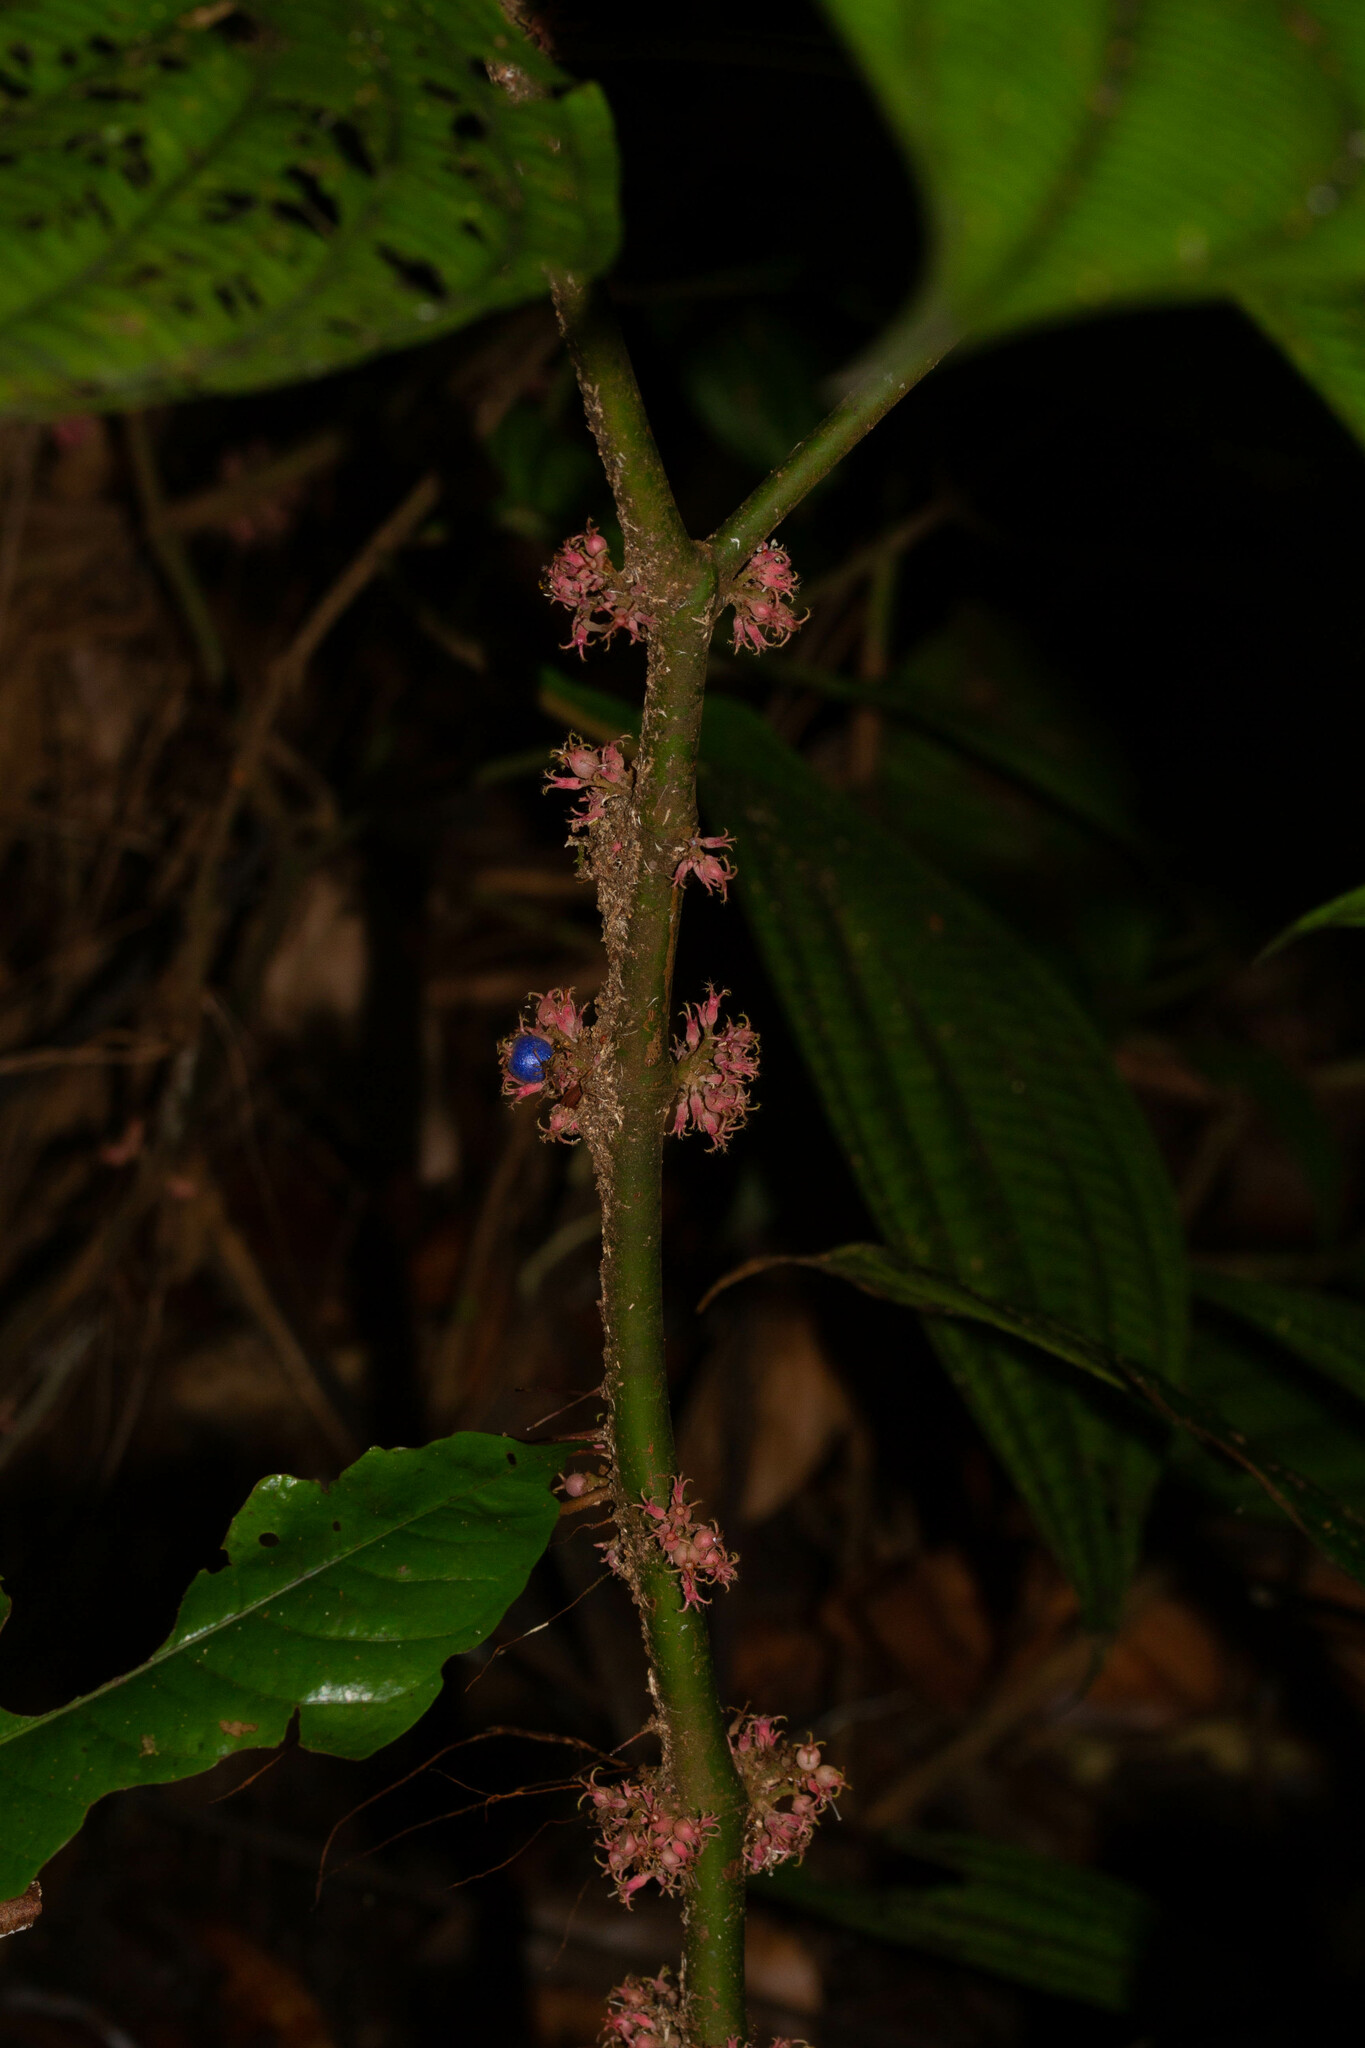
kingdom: Plantae
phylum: Tracheophyta
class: Magnoliopsida
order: Myrtales
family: Melastomataceae
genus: Miconia
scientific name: Miconia trichocalyx
